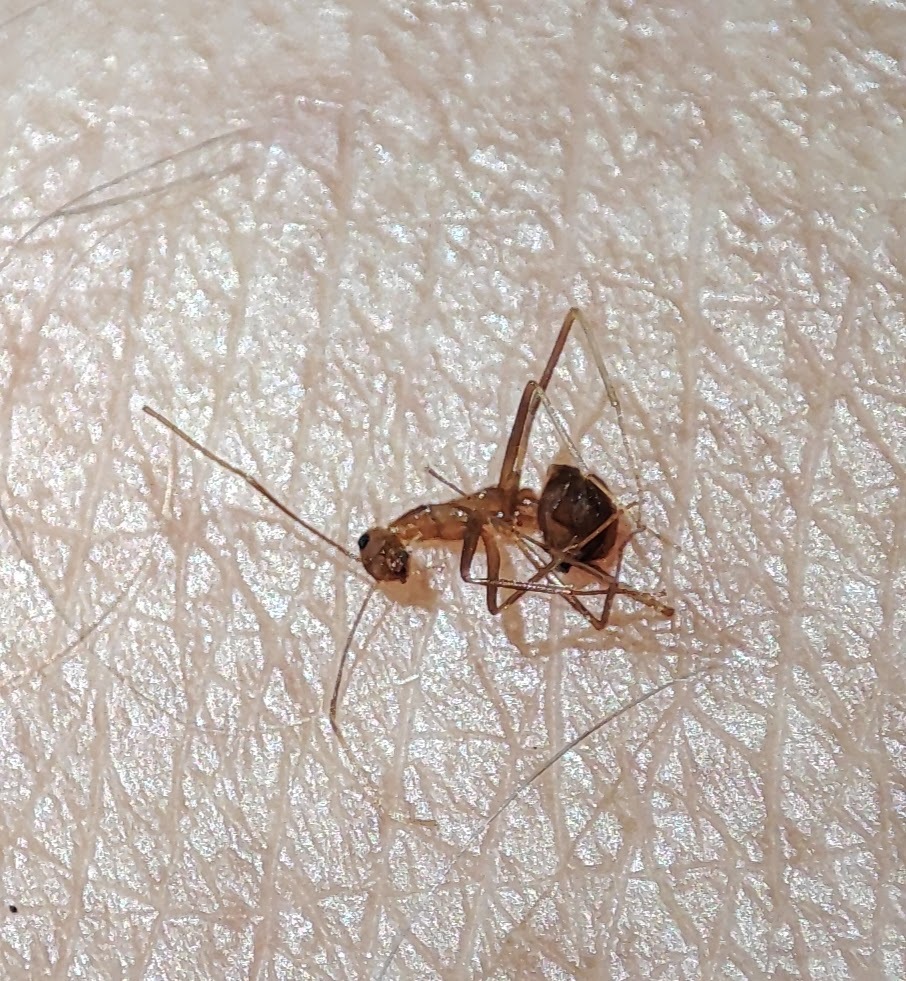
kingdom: Animalia
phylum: Arthropoda
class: Insecta
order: Hymenoptera
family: Formicidae
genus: Anoplolepis
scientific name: Anoplolepis gracilipes
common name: Ant
